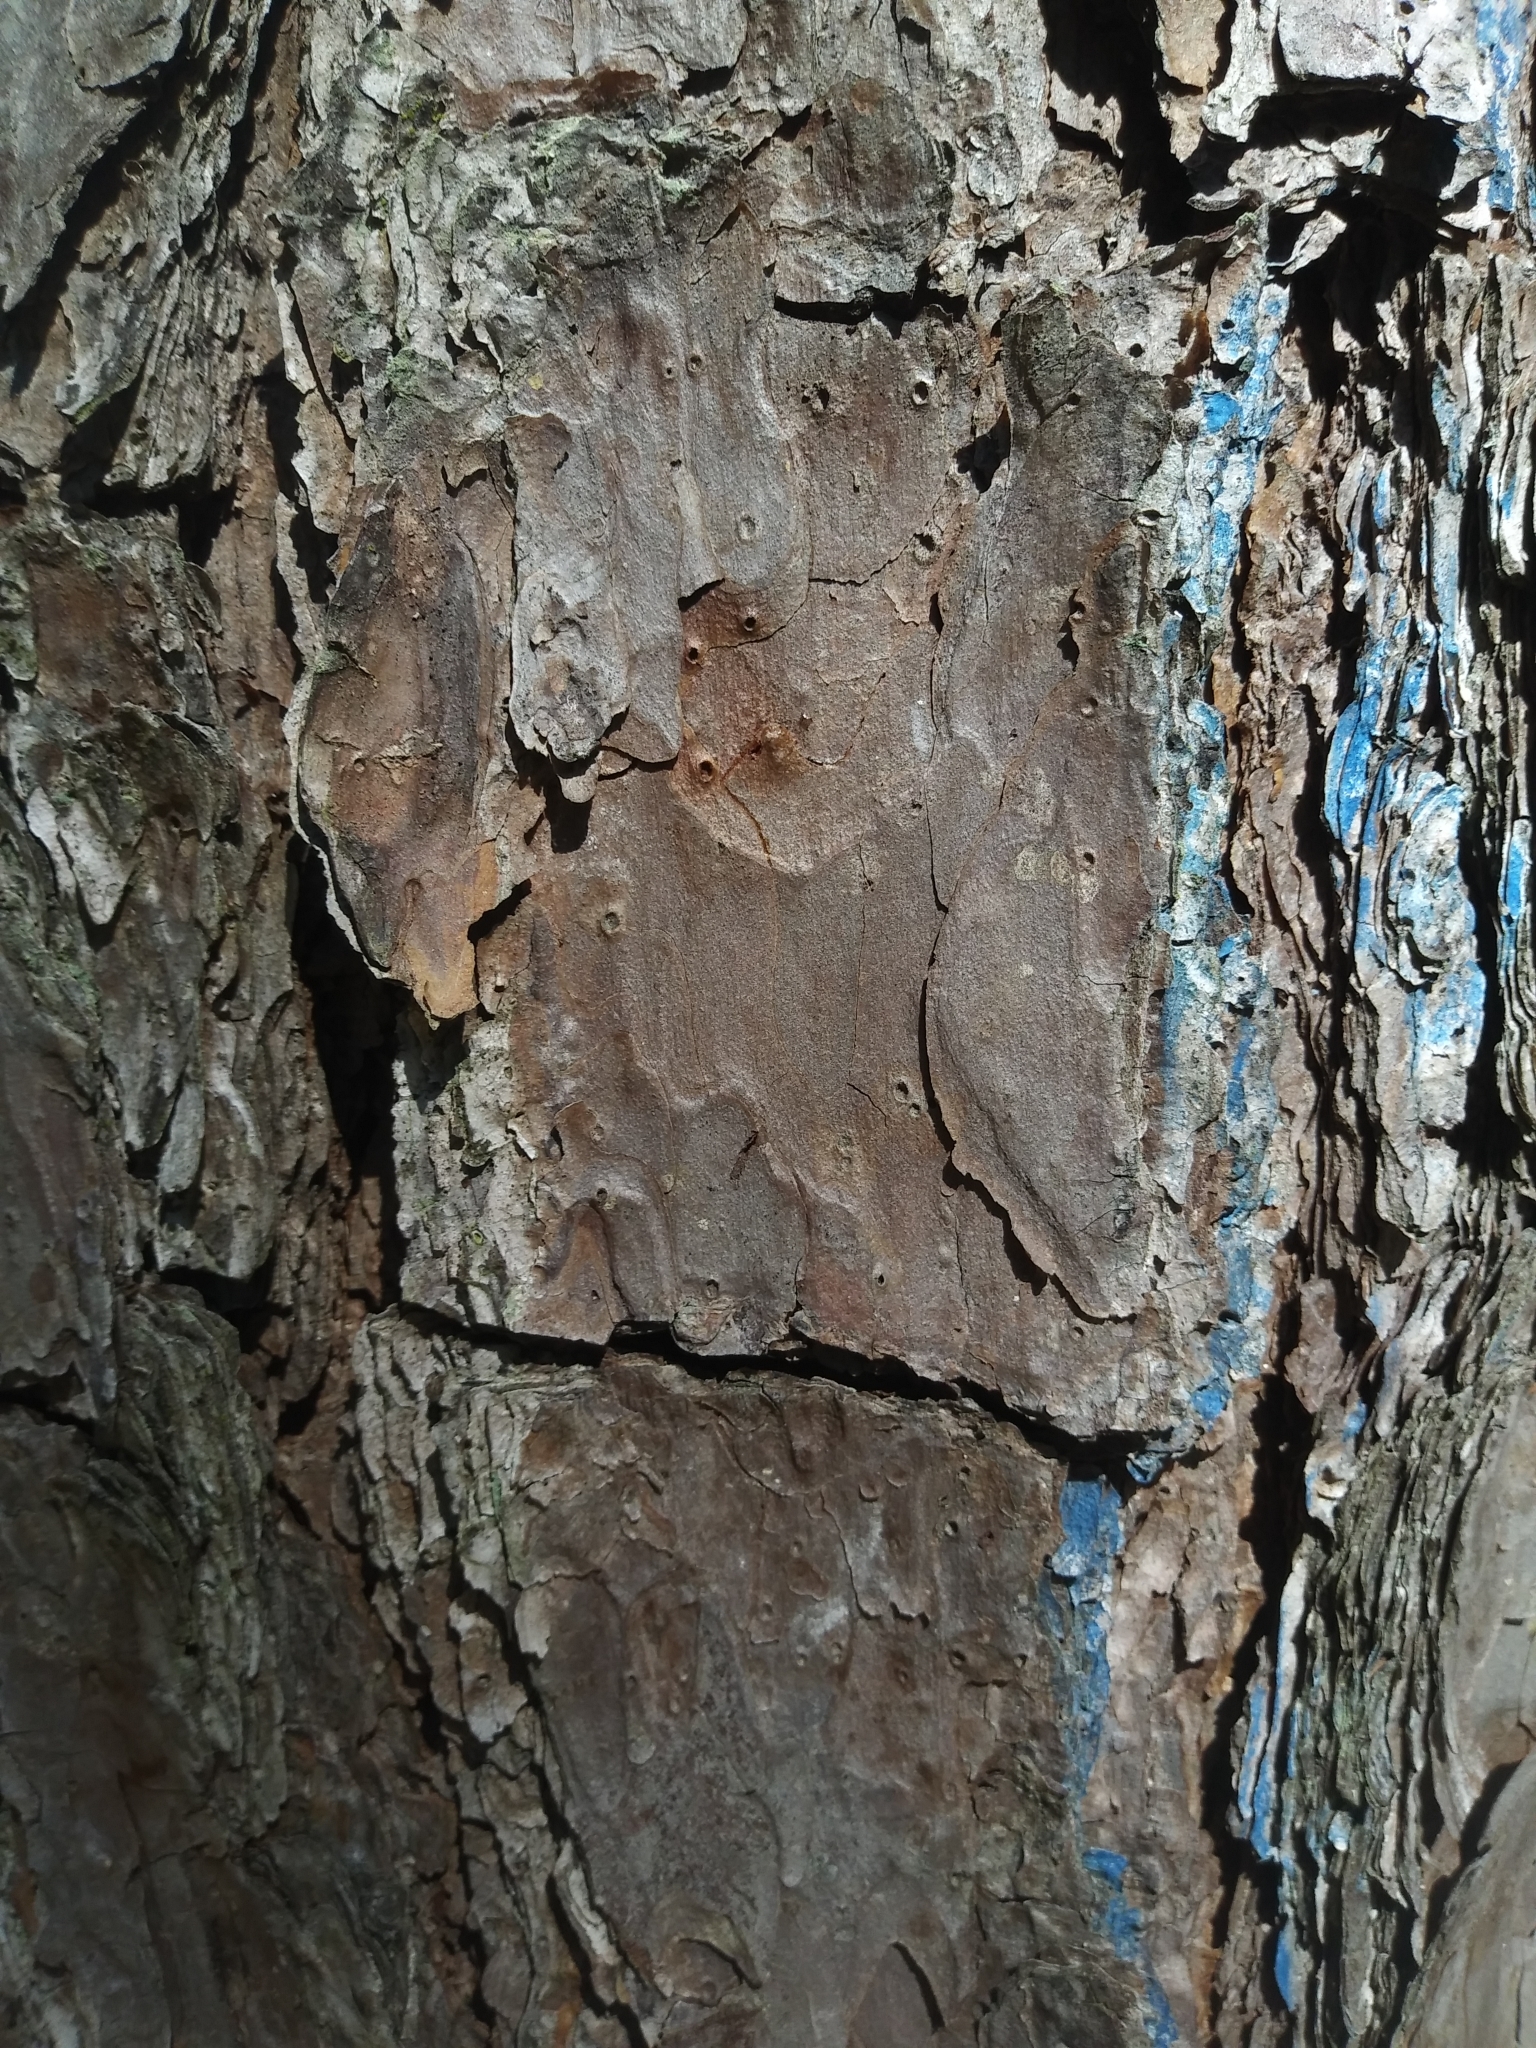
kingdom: Plantae
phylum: Tracheophyta
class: Pinopsida
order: Pinales
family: Pinaceae
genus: Pinus
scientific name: Pinus echinata
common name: Shortleaf pine
